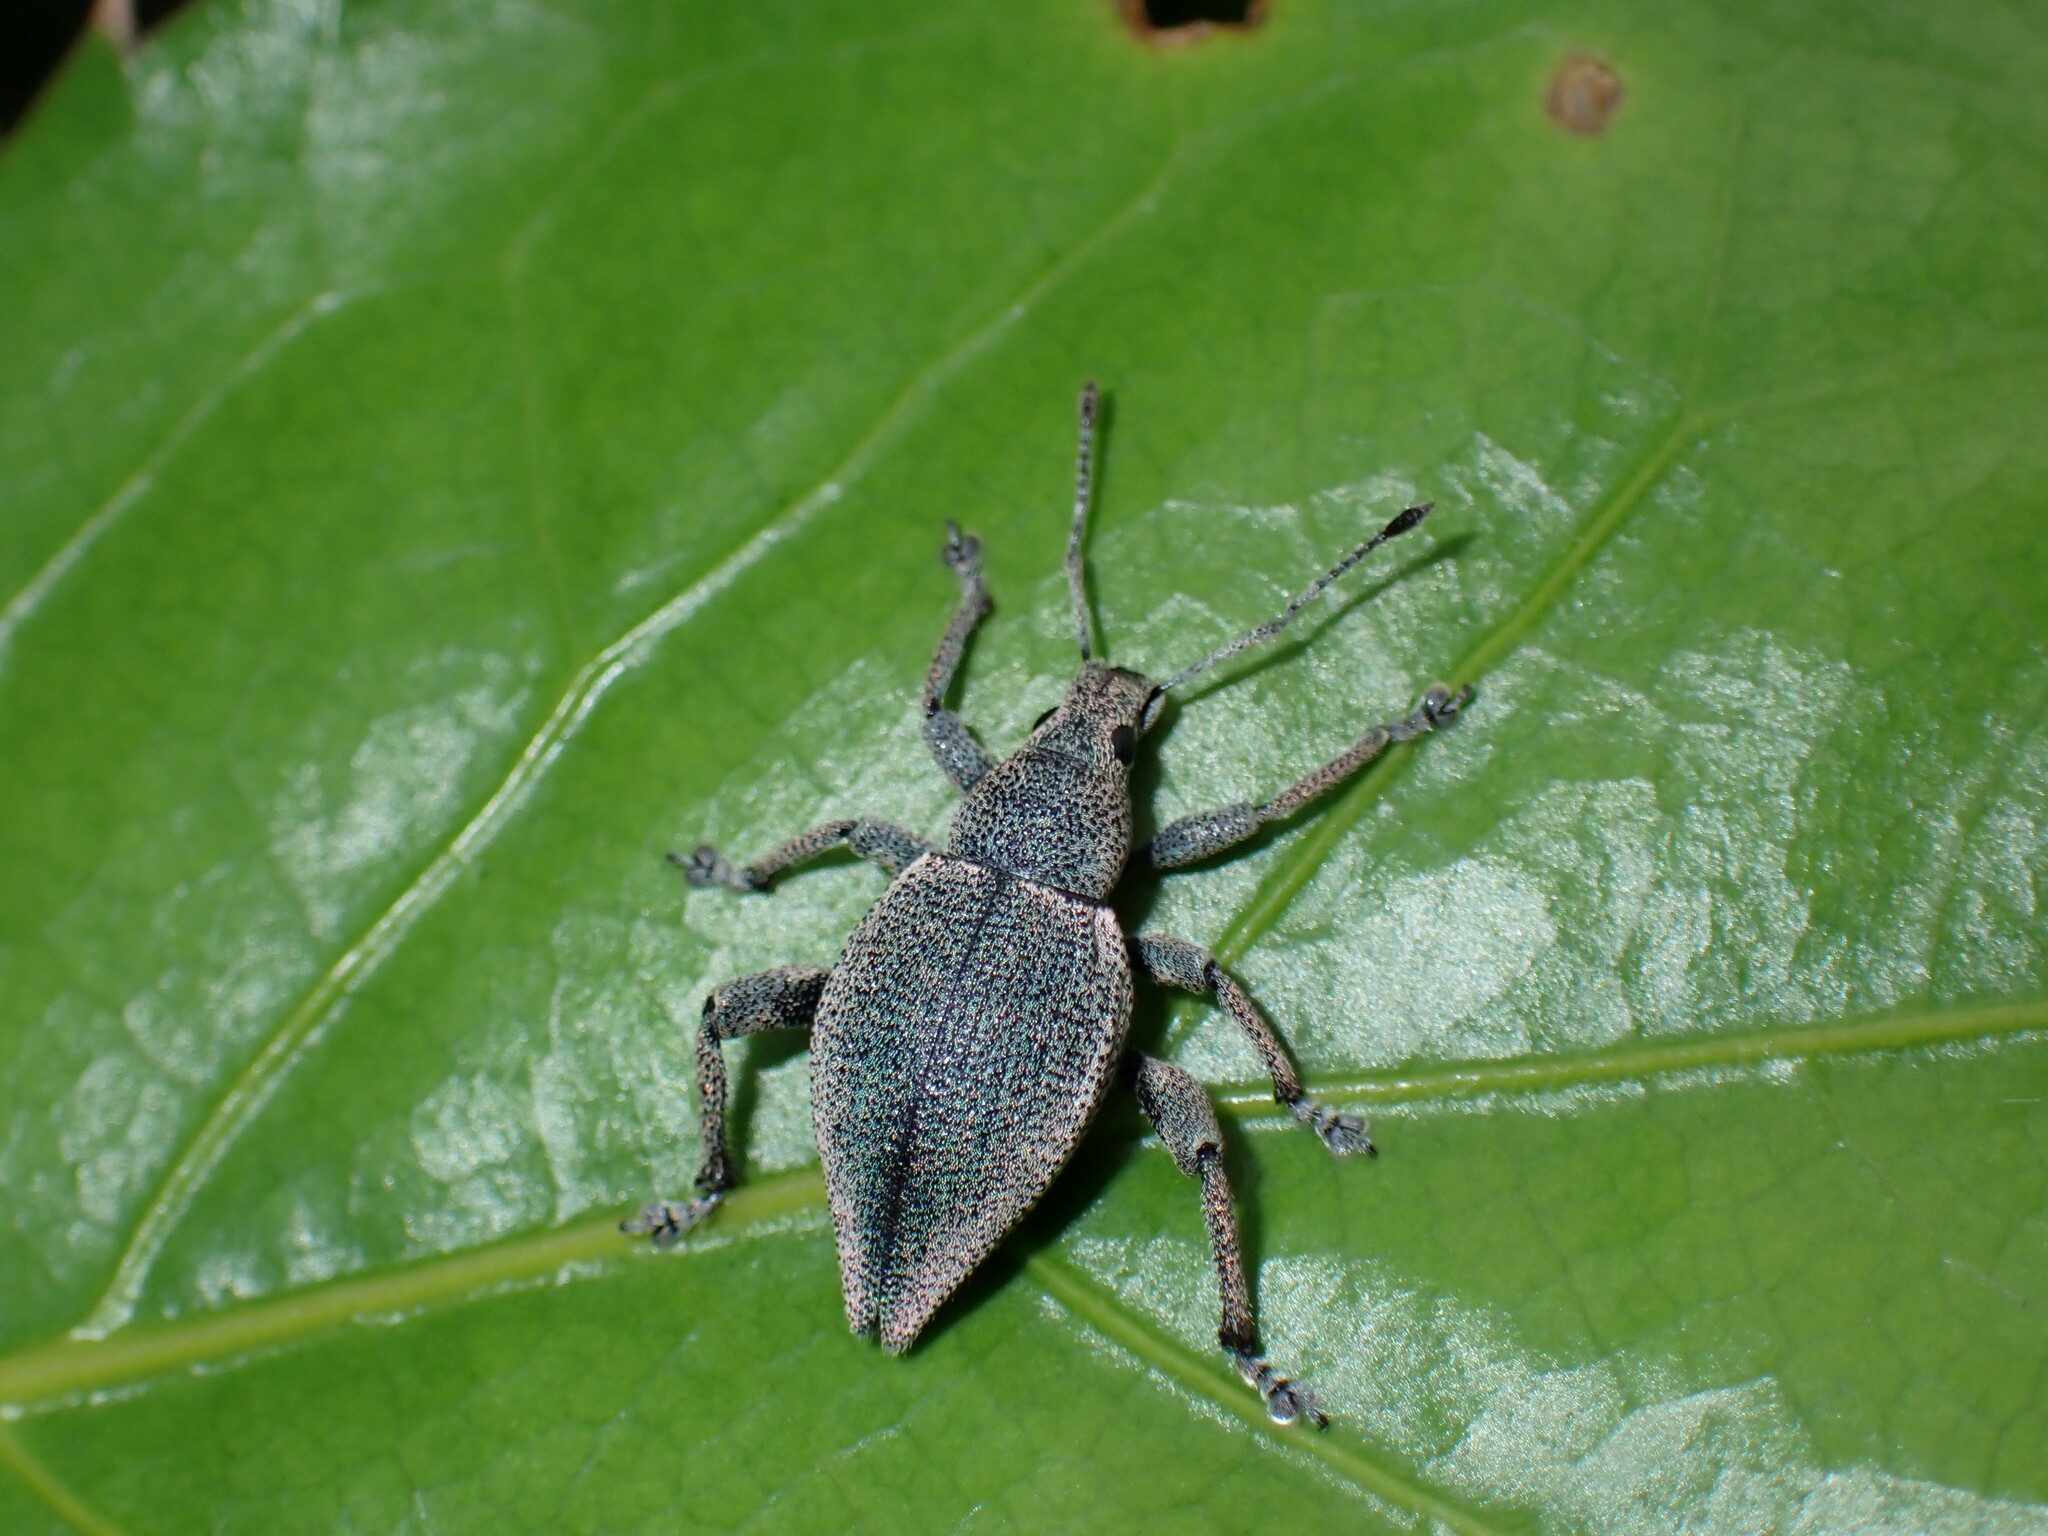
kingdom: Animalia
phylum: Arthropoda
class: Insecta
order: Coleoptera
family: Curculionidae
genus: Elytrurus
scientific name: Elytrurus marginatus
